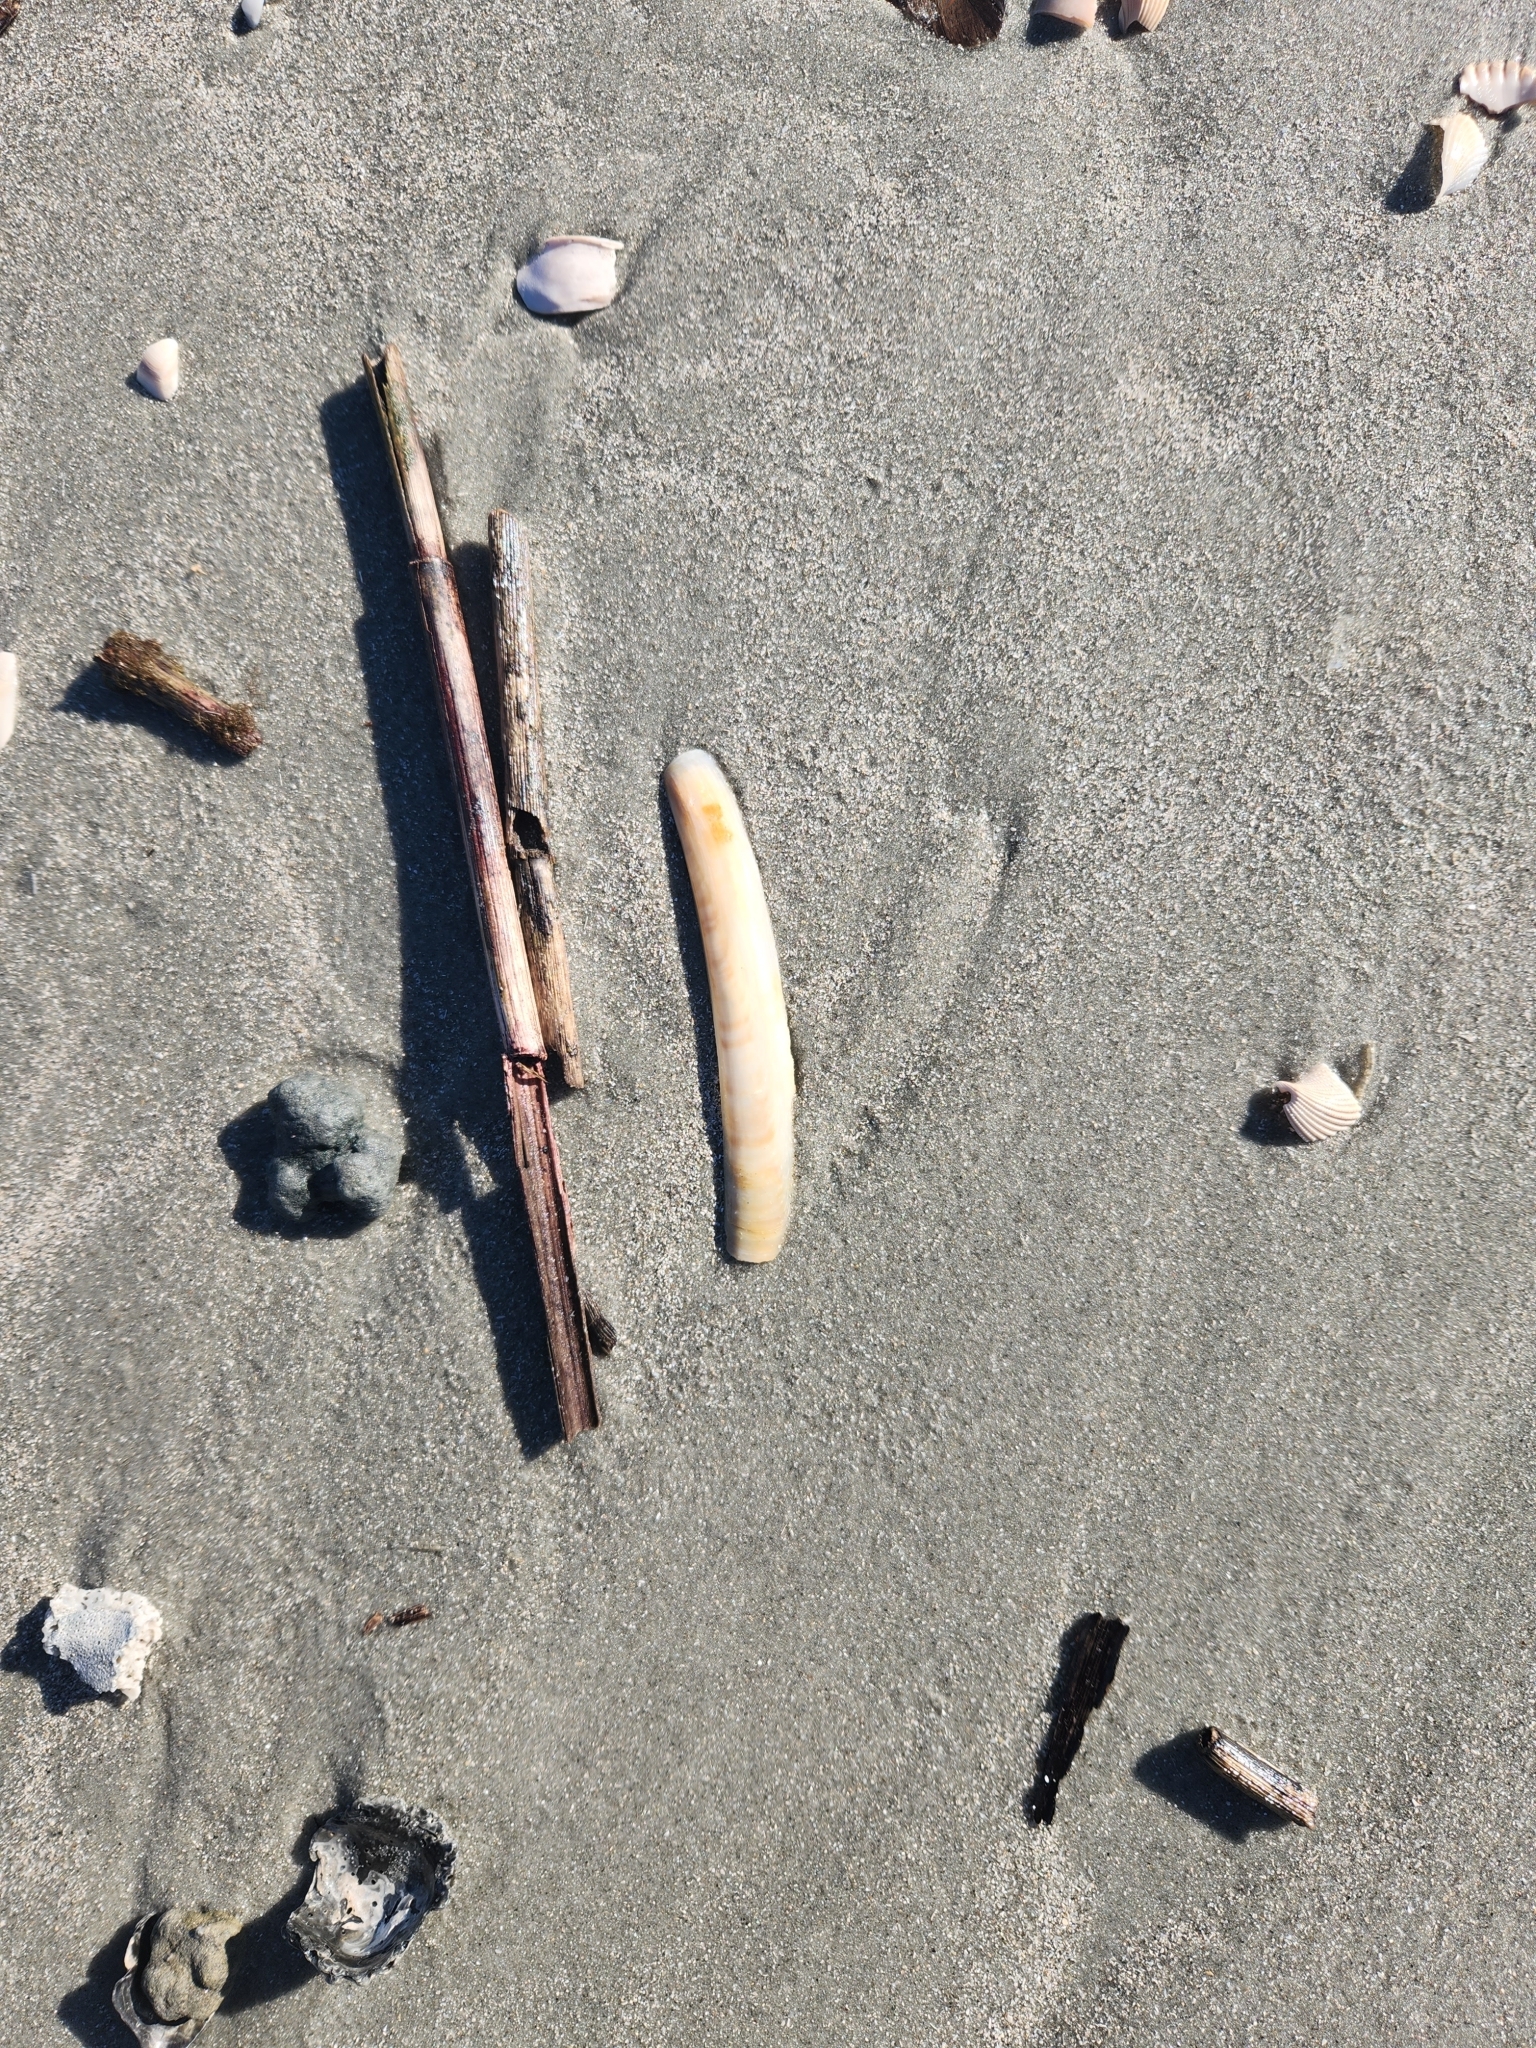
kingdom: Animalia
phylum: Mollusca
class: Bivalvia
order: Adapedonta
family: Pharidae
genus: Ensis
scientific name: Ensis leei
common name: American jack knife clam
